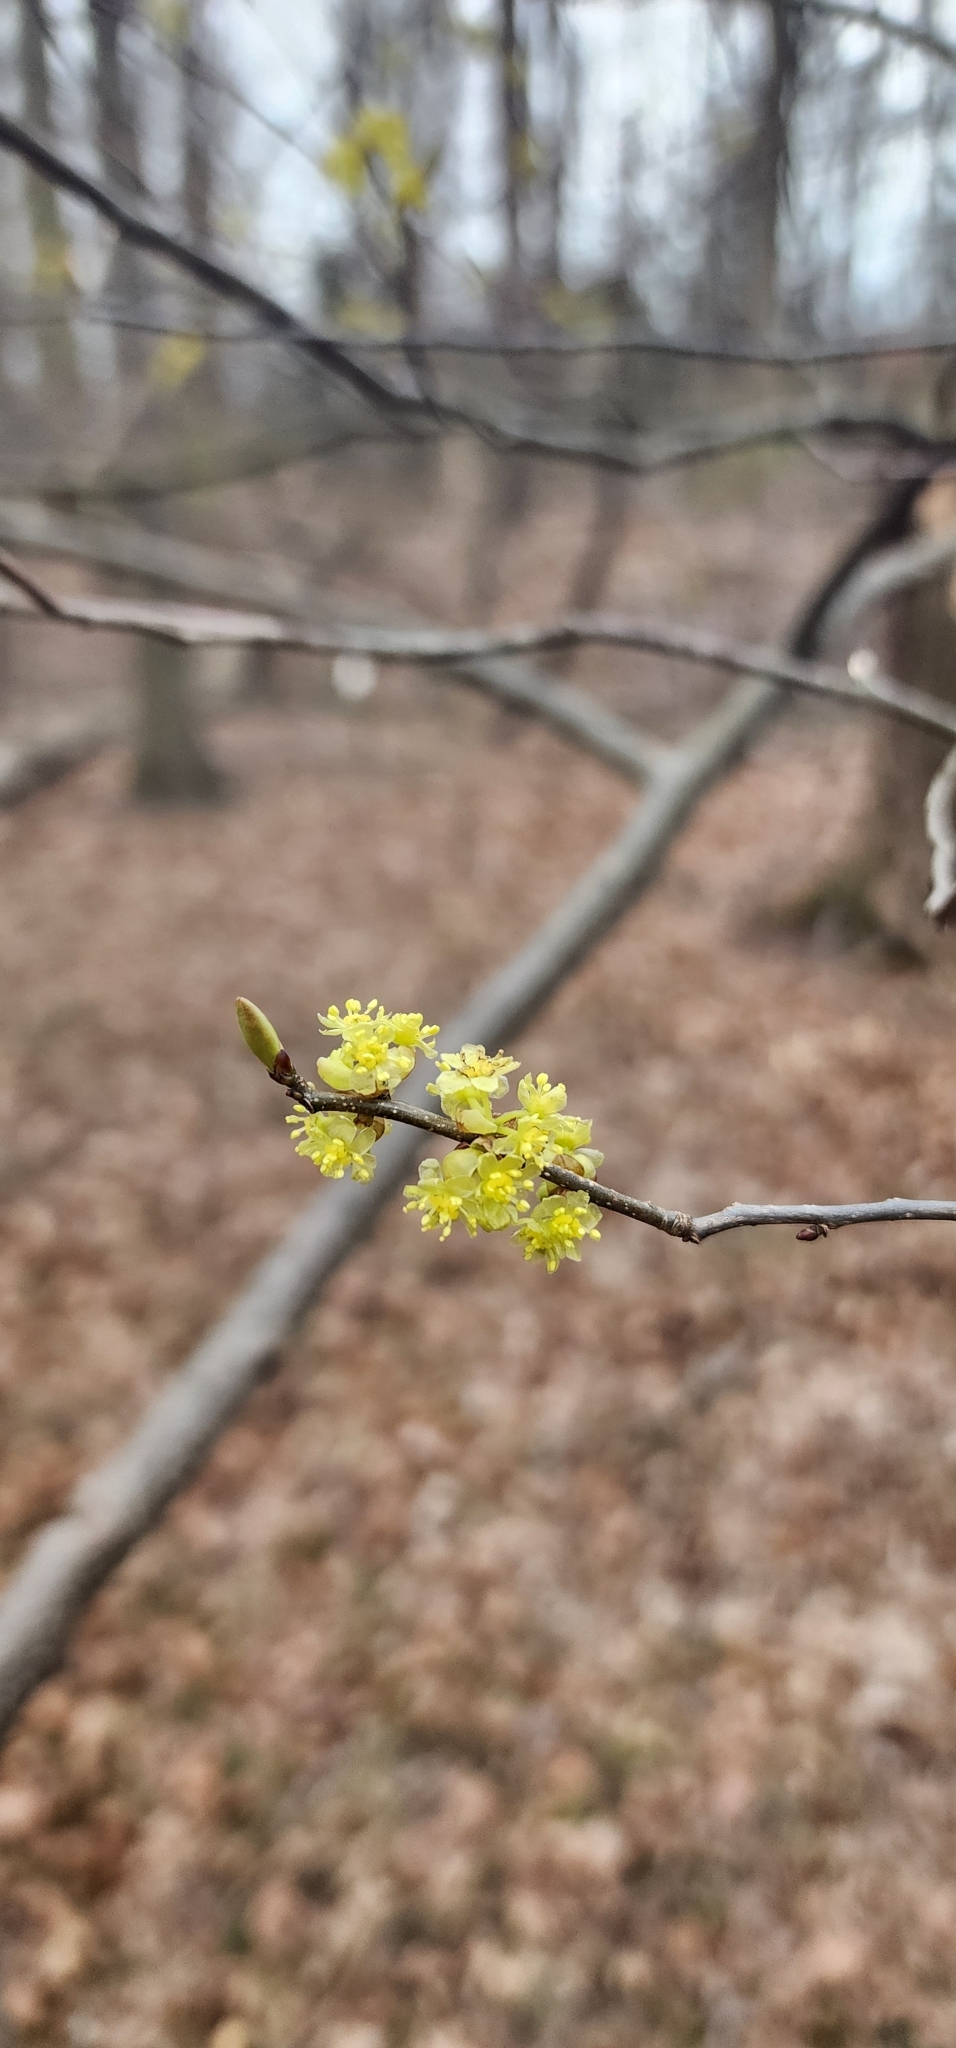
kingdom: Plantae
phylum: Tracheophyta
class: Magnoliopsida
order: Laurales
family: Lauraceae
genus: Lindera
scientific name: Lindera benzoin
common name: Spicebush
